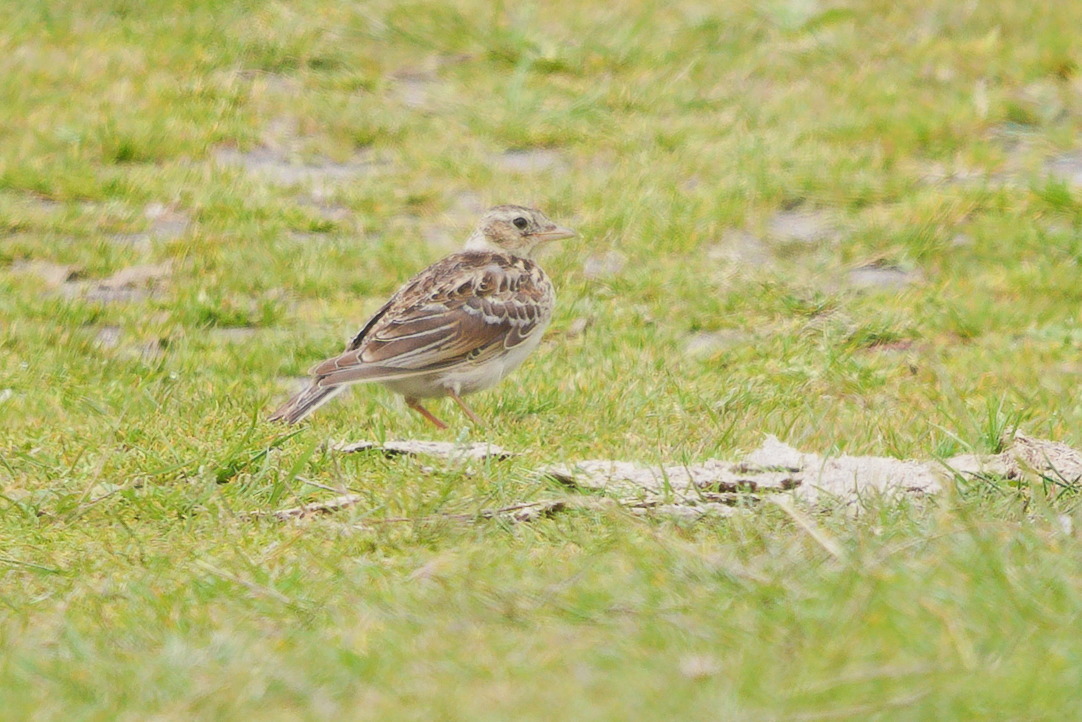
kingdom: Animalia
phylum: Chordata
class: Aves
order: Passeriformes
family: Alaudidae
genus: Alauda
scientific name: Alauda arvensis
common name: Eurasian skylark
